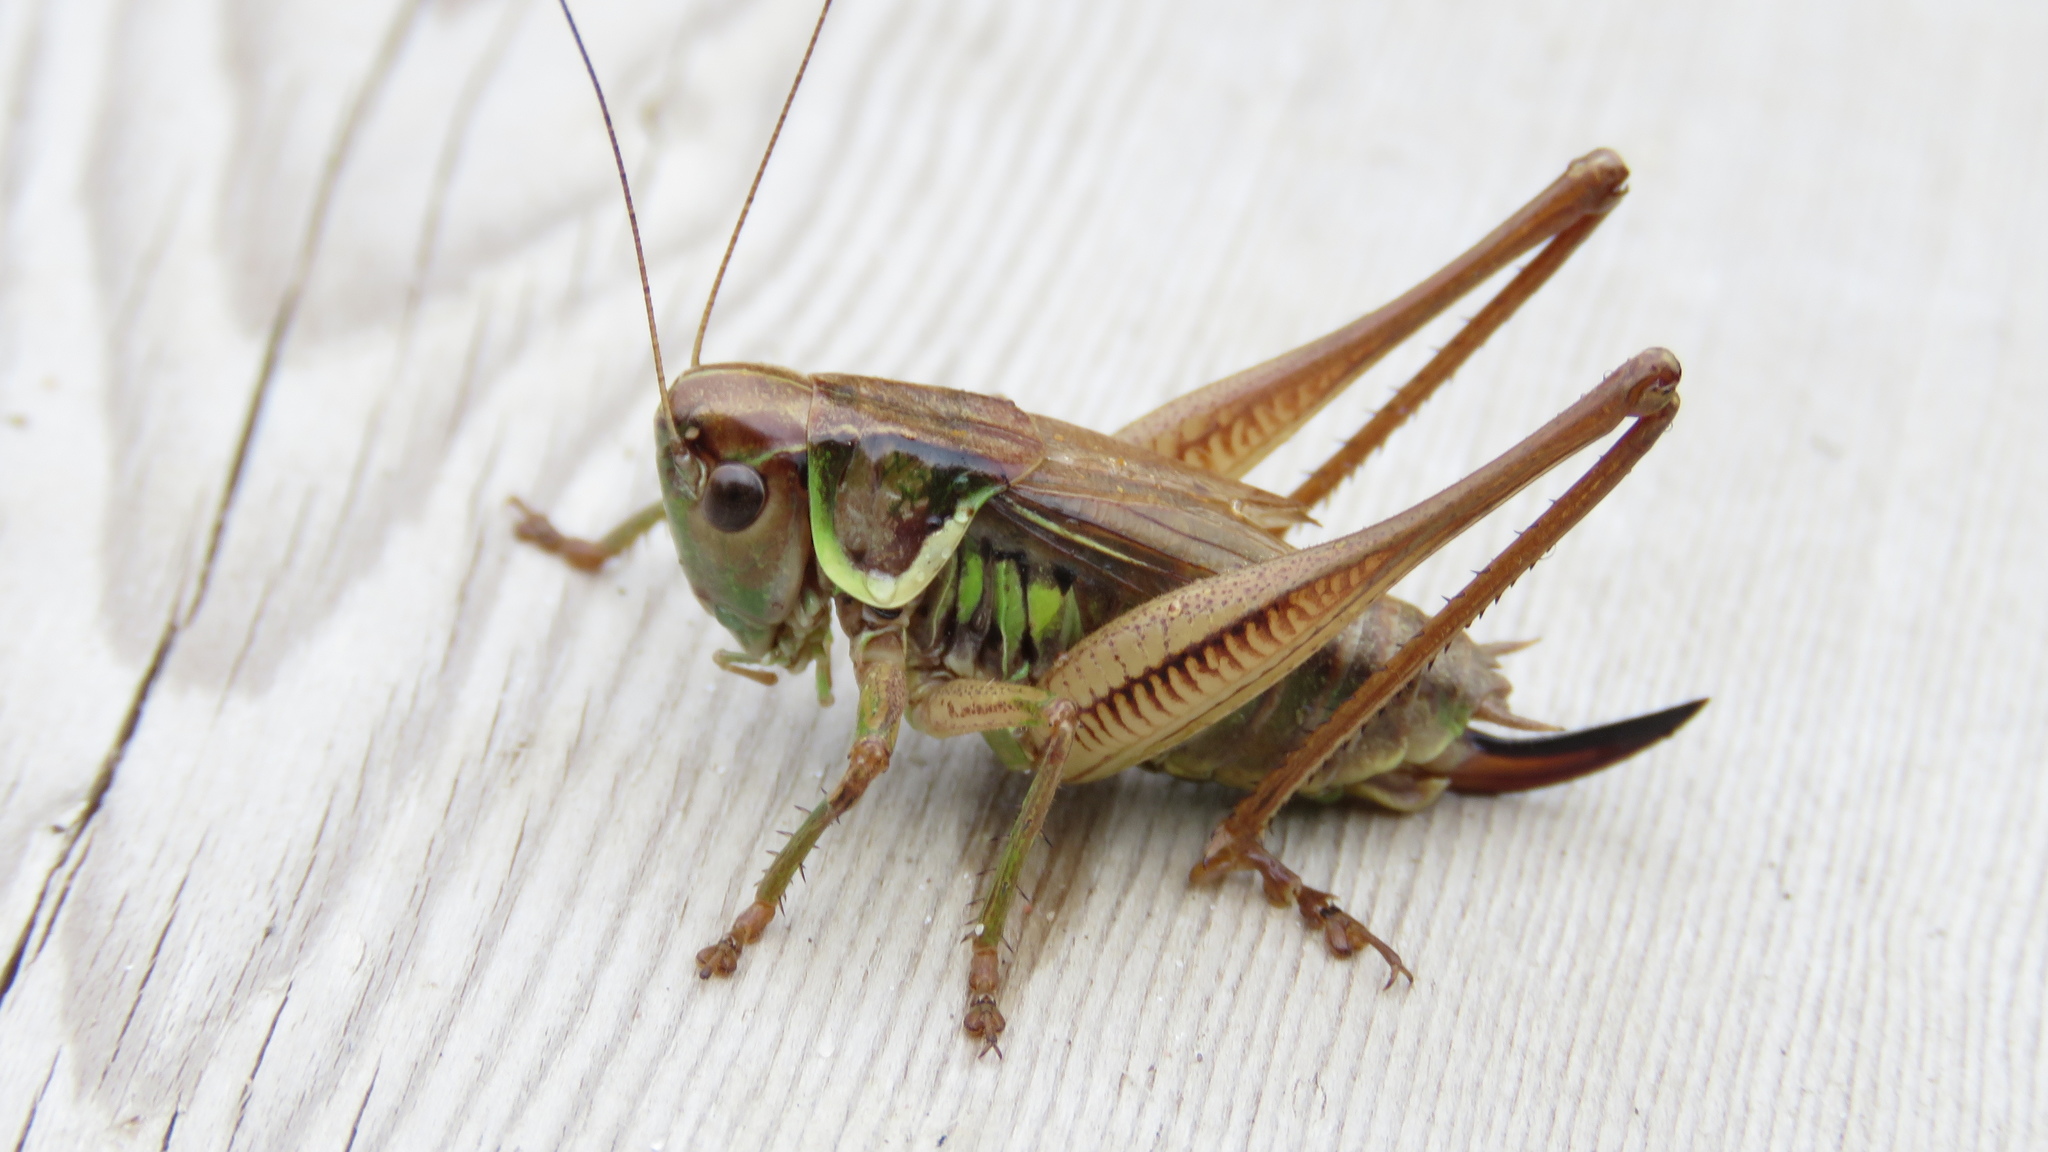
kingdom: Animalia
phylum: Arthropoda
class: Insecta
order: Orthoptera
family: Tettigoniidae
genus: Roeseliana
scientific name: Roeseliana roeselii
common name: Roesel's bush cricket
